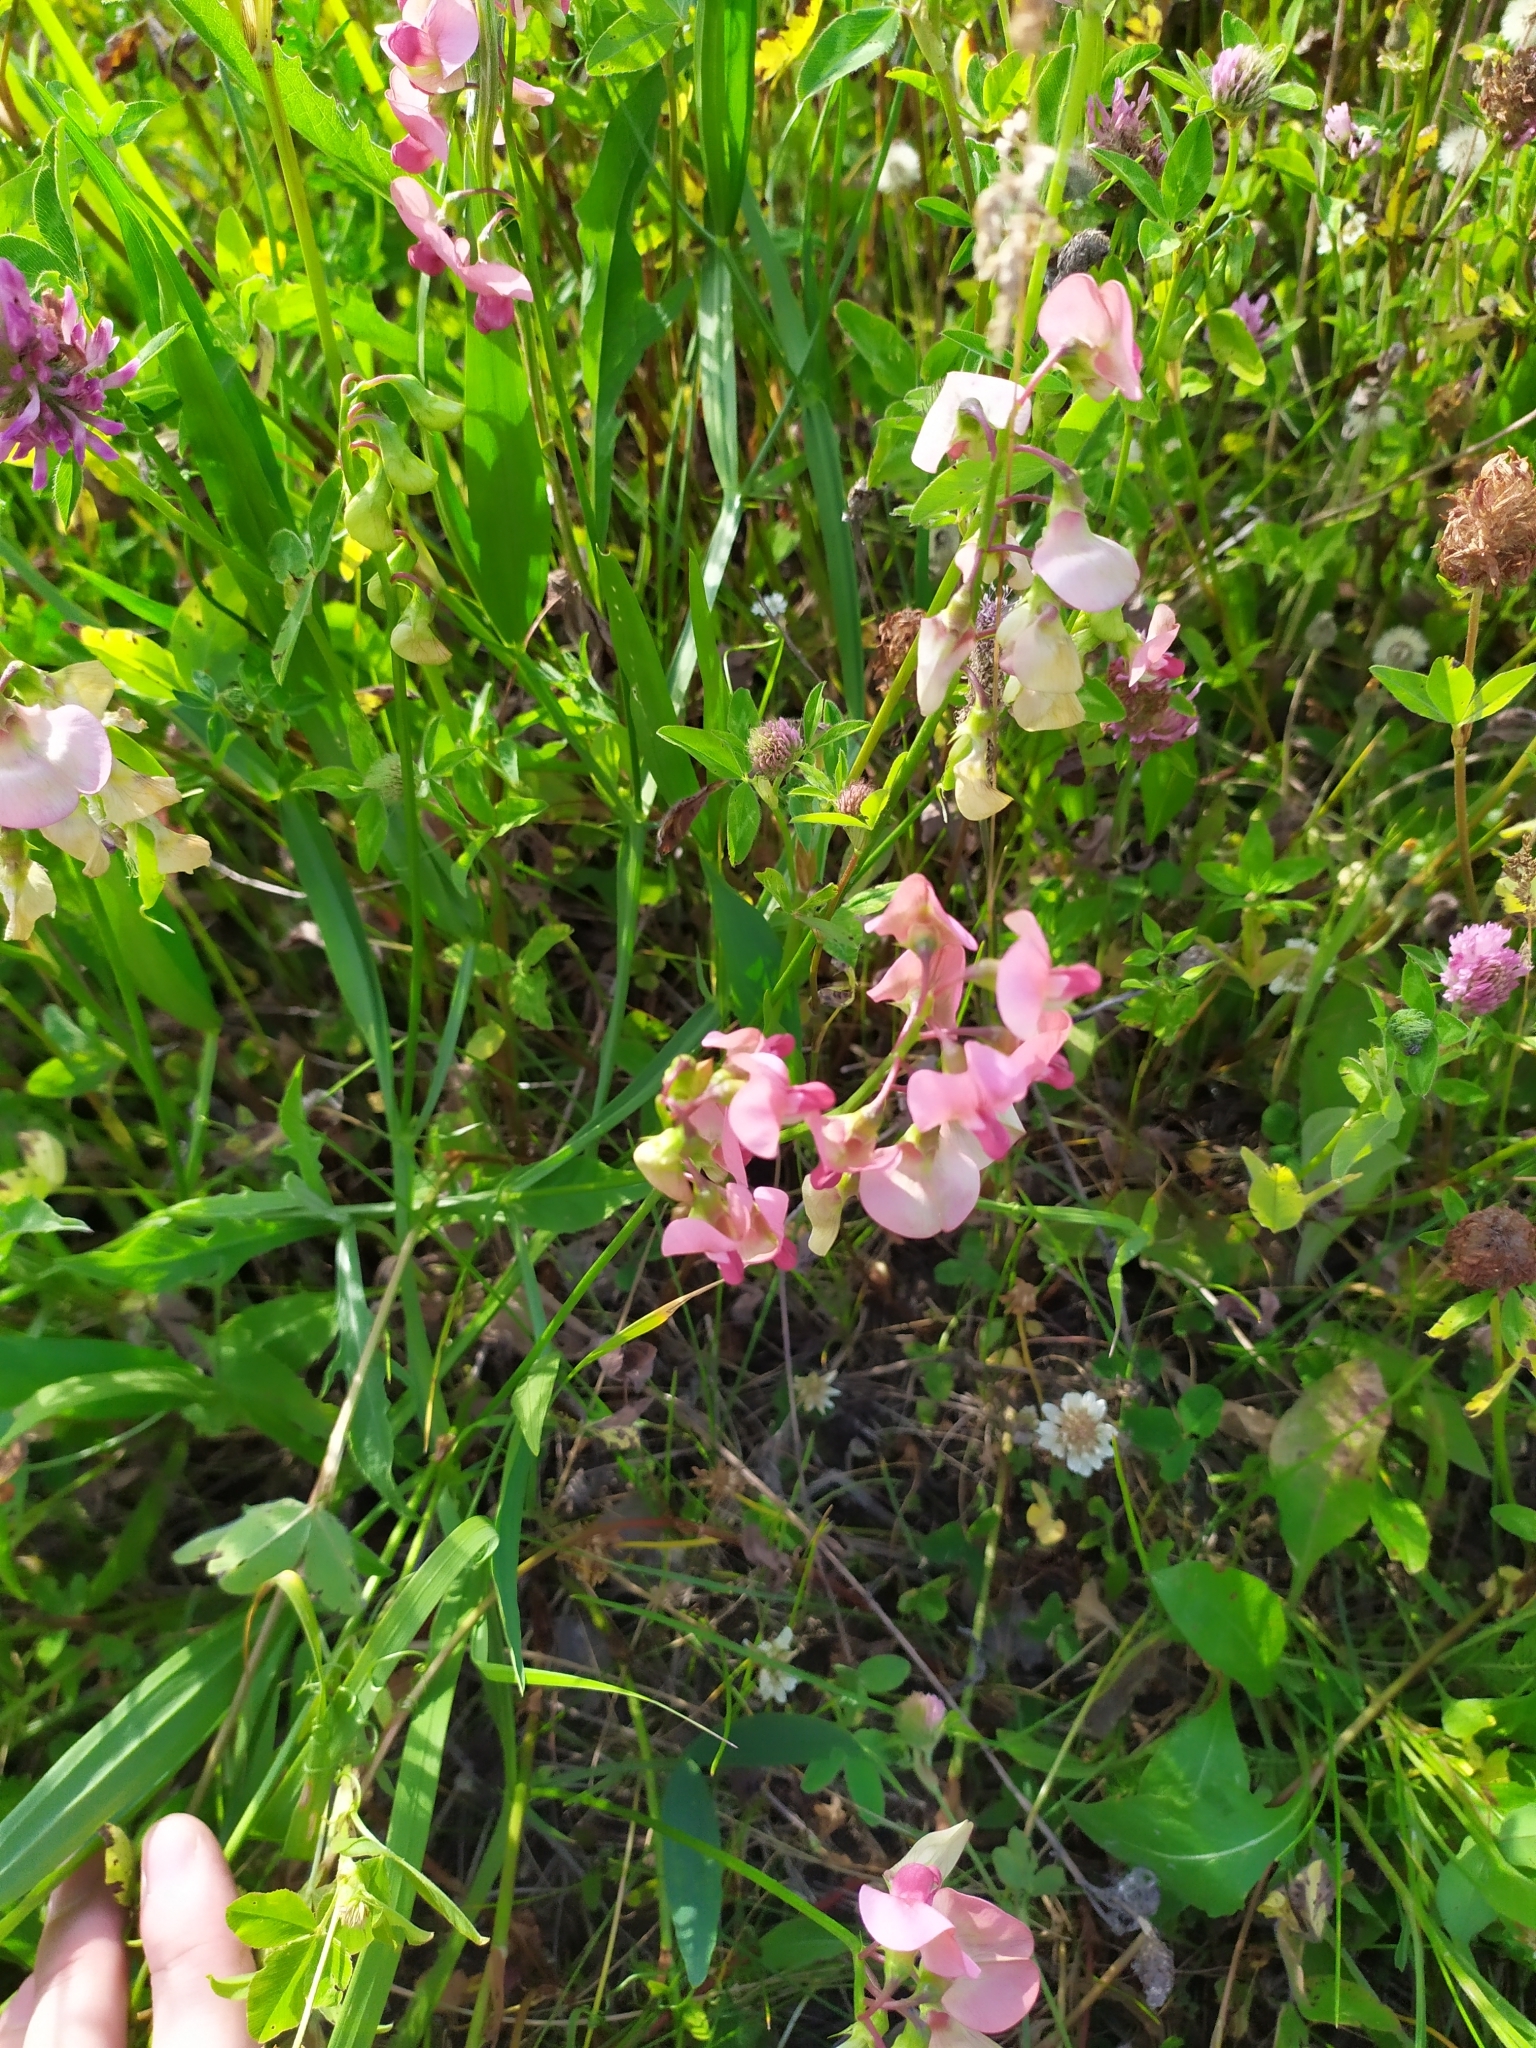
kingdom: Plantae
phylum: Tracheophyta
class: Magnoliopsida
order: Fabales
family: Fabaceae
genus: Lathyrus
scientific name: Lathyrus sylvestris
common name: Flat pea
